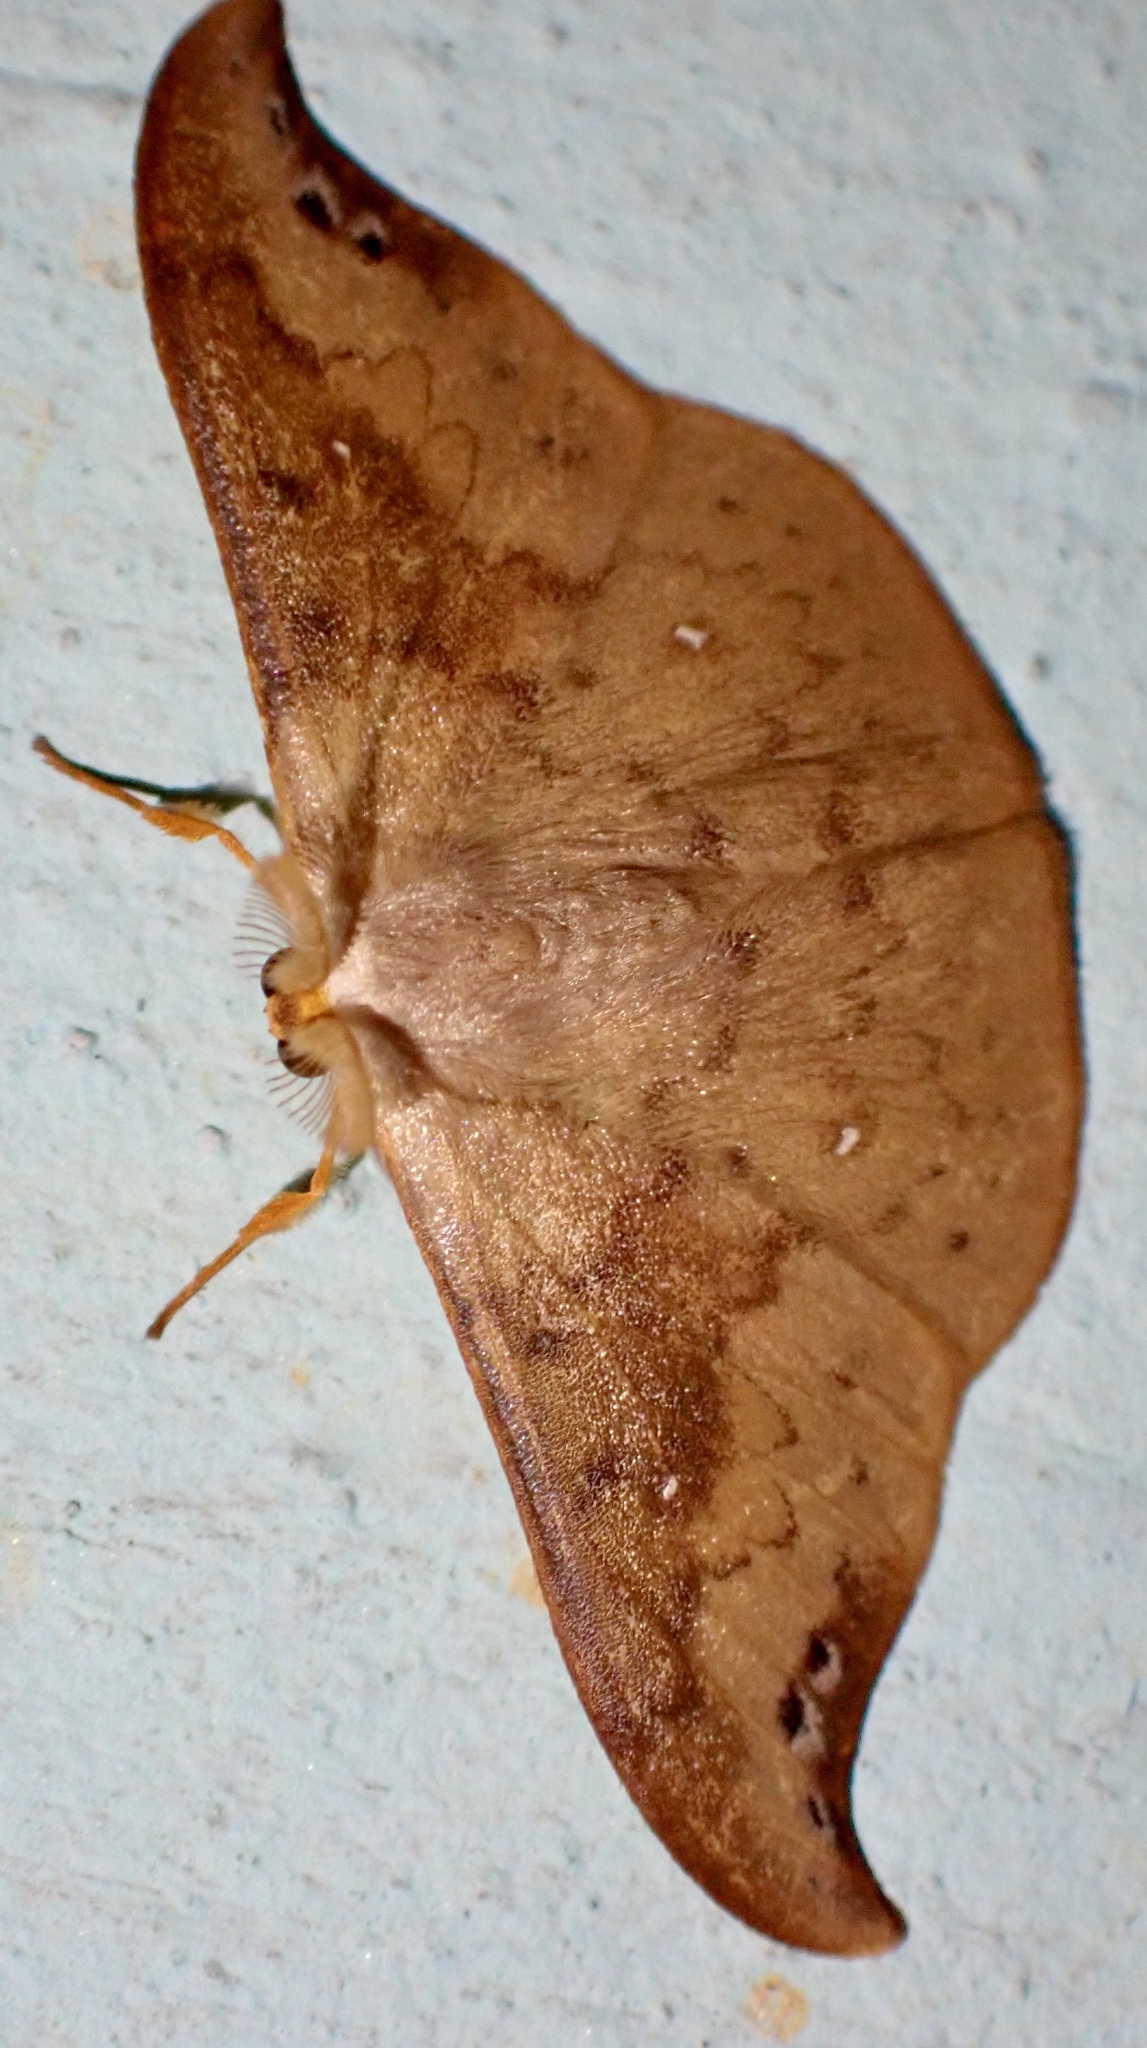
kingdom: Animalia
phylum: Arthropoda
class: Insecta
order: Lepidoptera
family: Drepanidae
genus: Tridrepana
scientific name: Tridrepana olivacea
